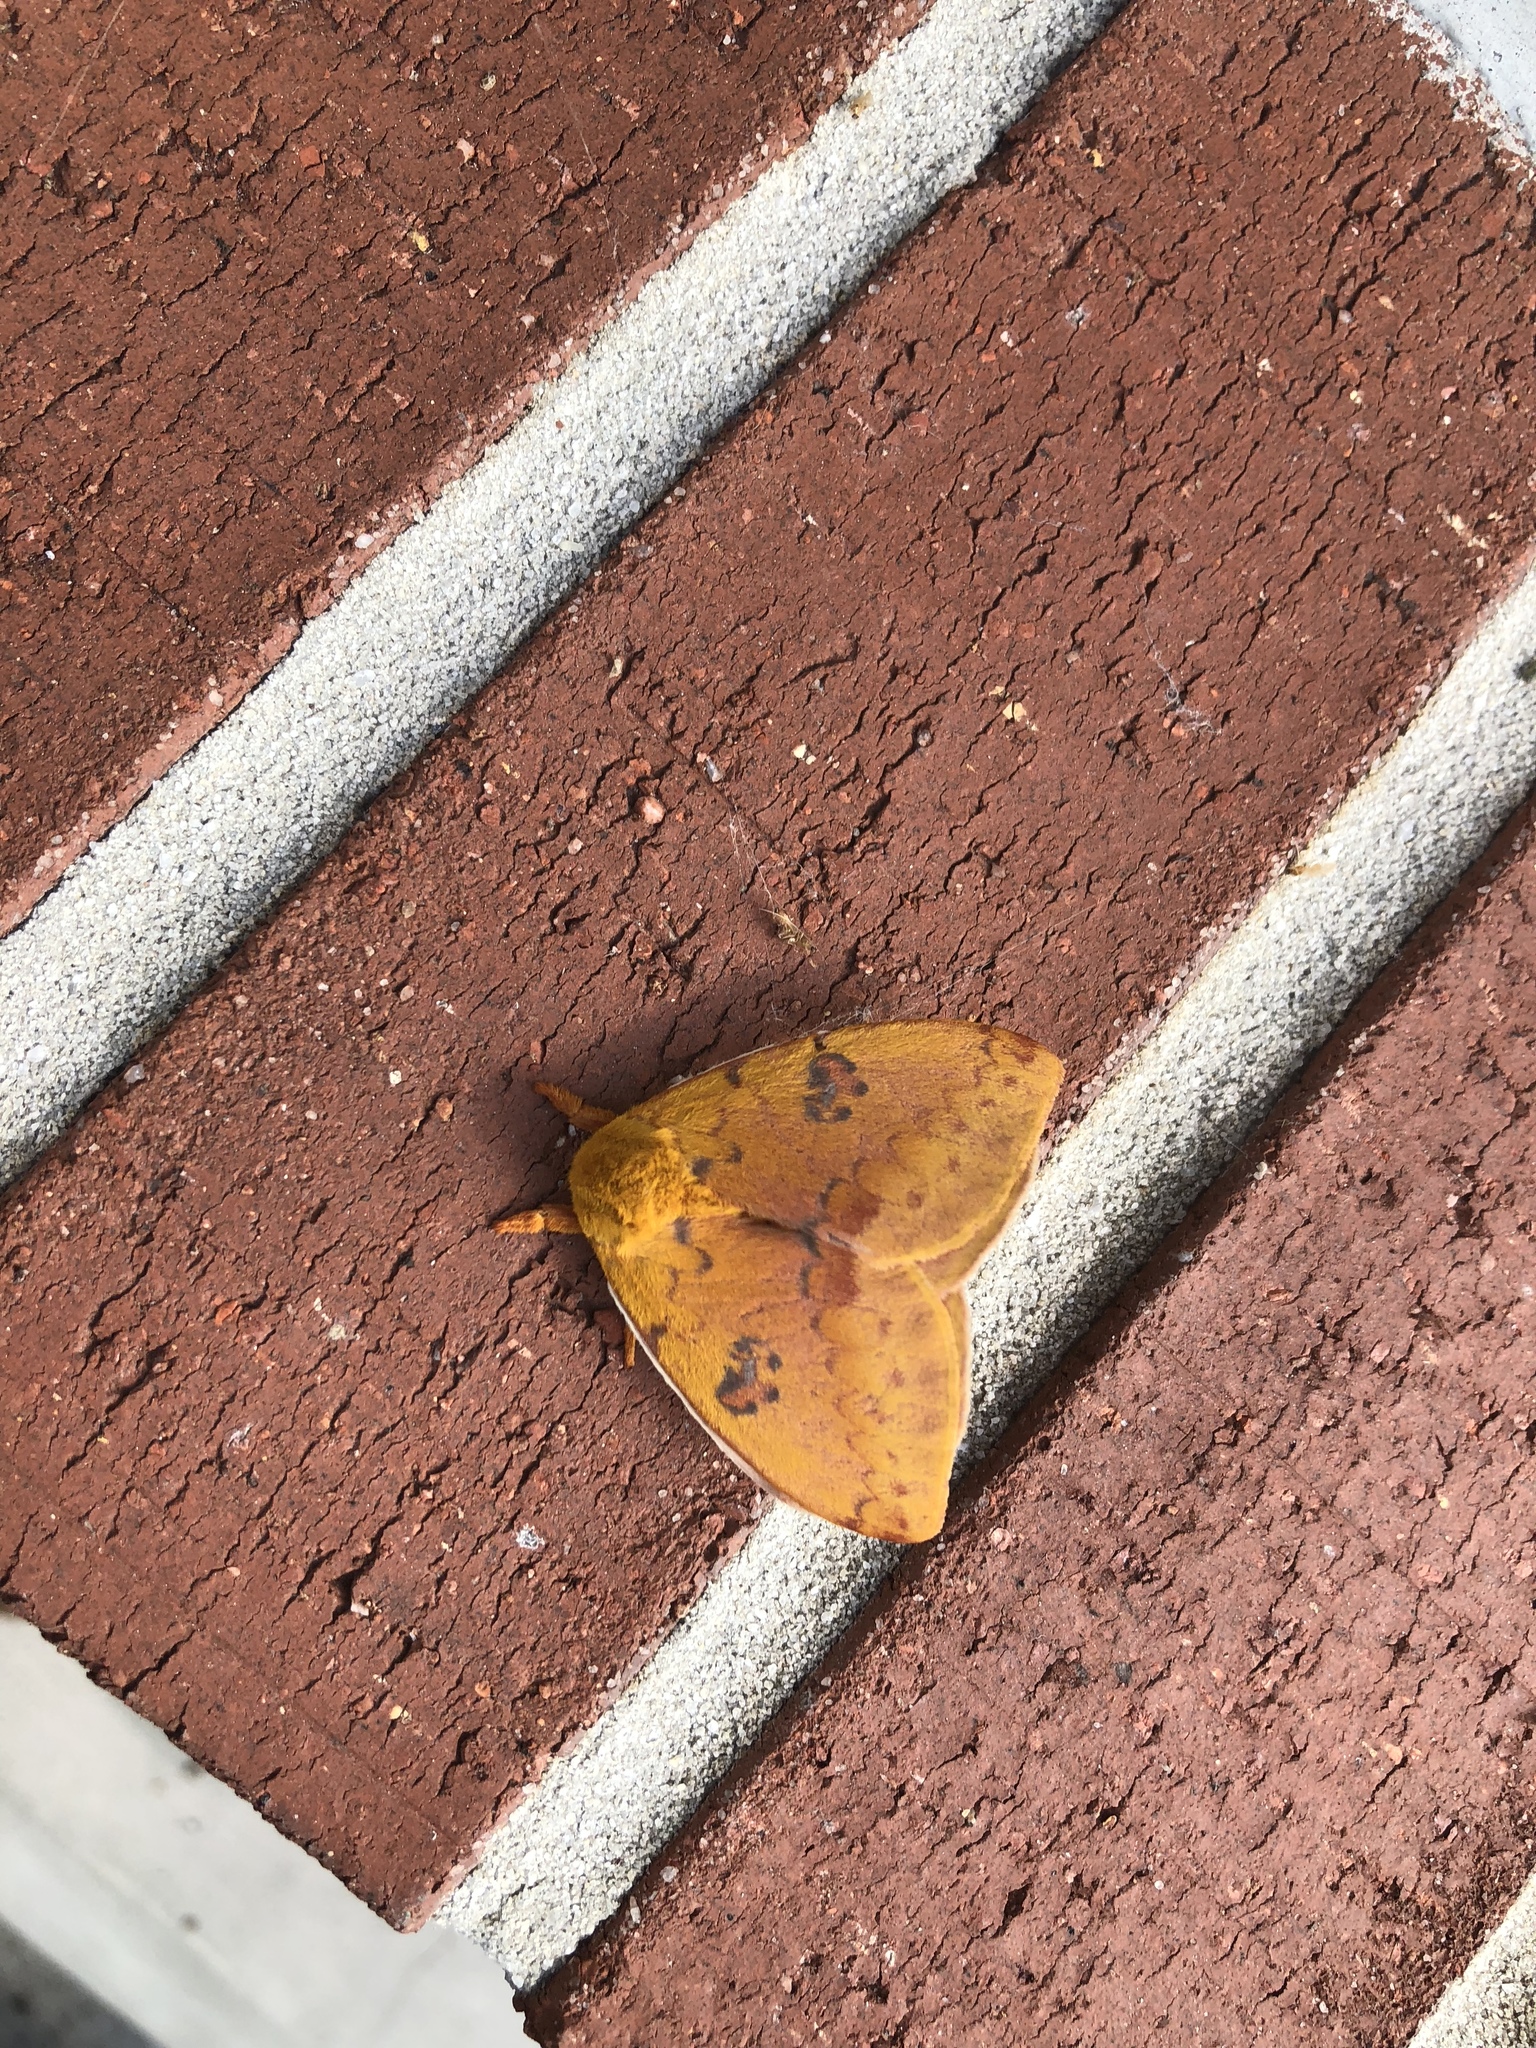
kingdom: Animalia
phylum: Arthropoda
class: Insecta
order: Lepidoptera
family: Saturniidae
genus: Automeris
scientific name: Automeris io
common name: Io moth
